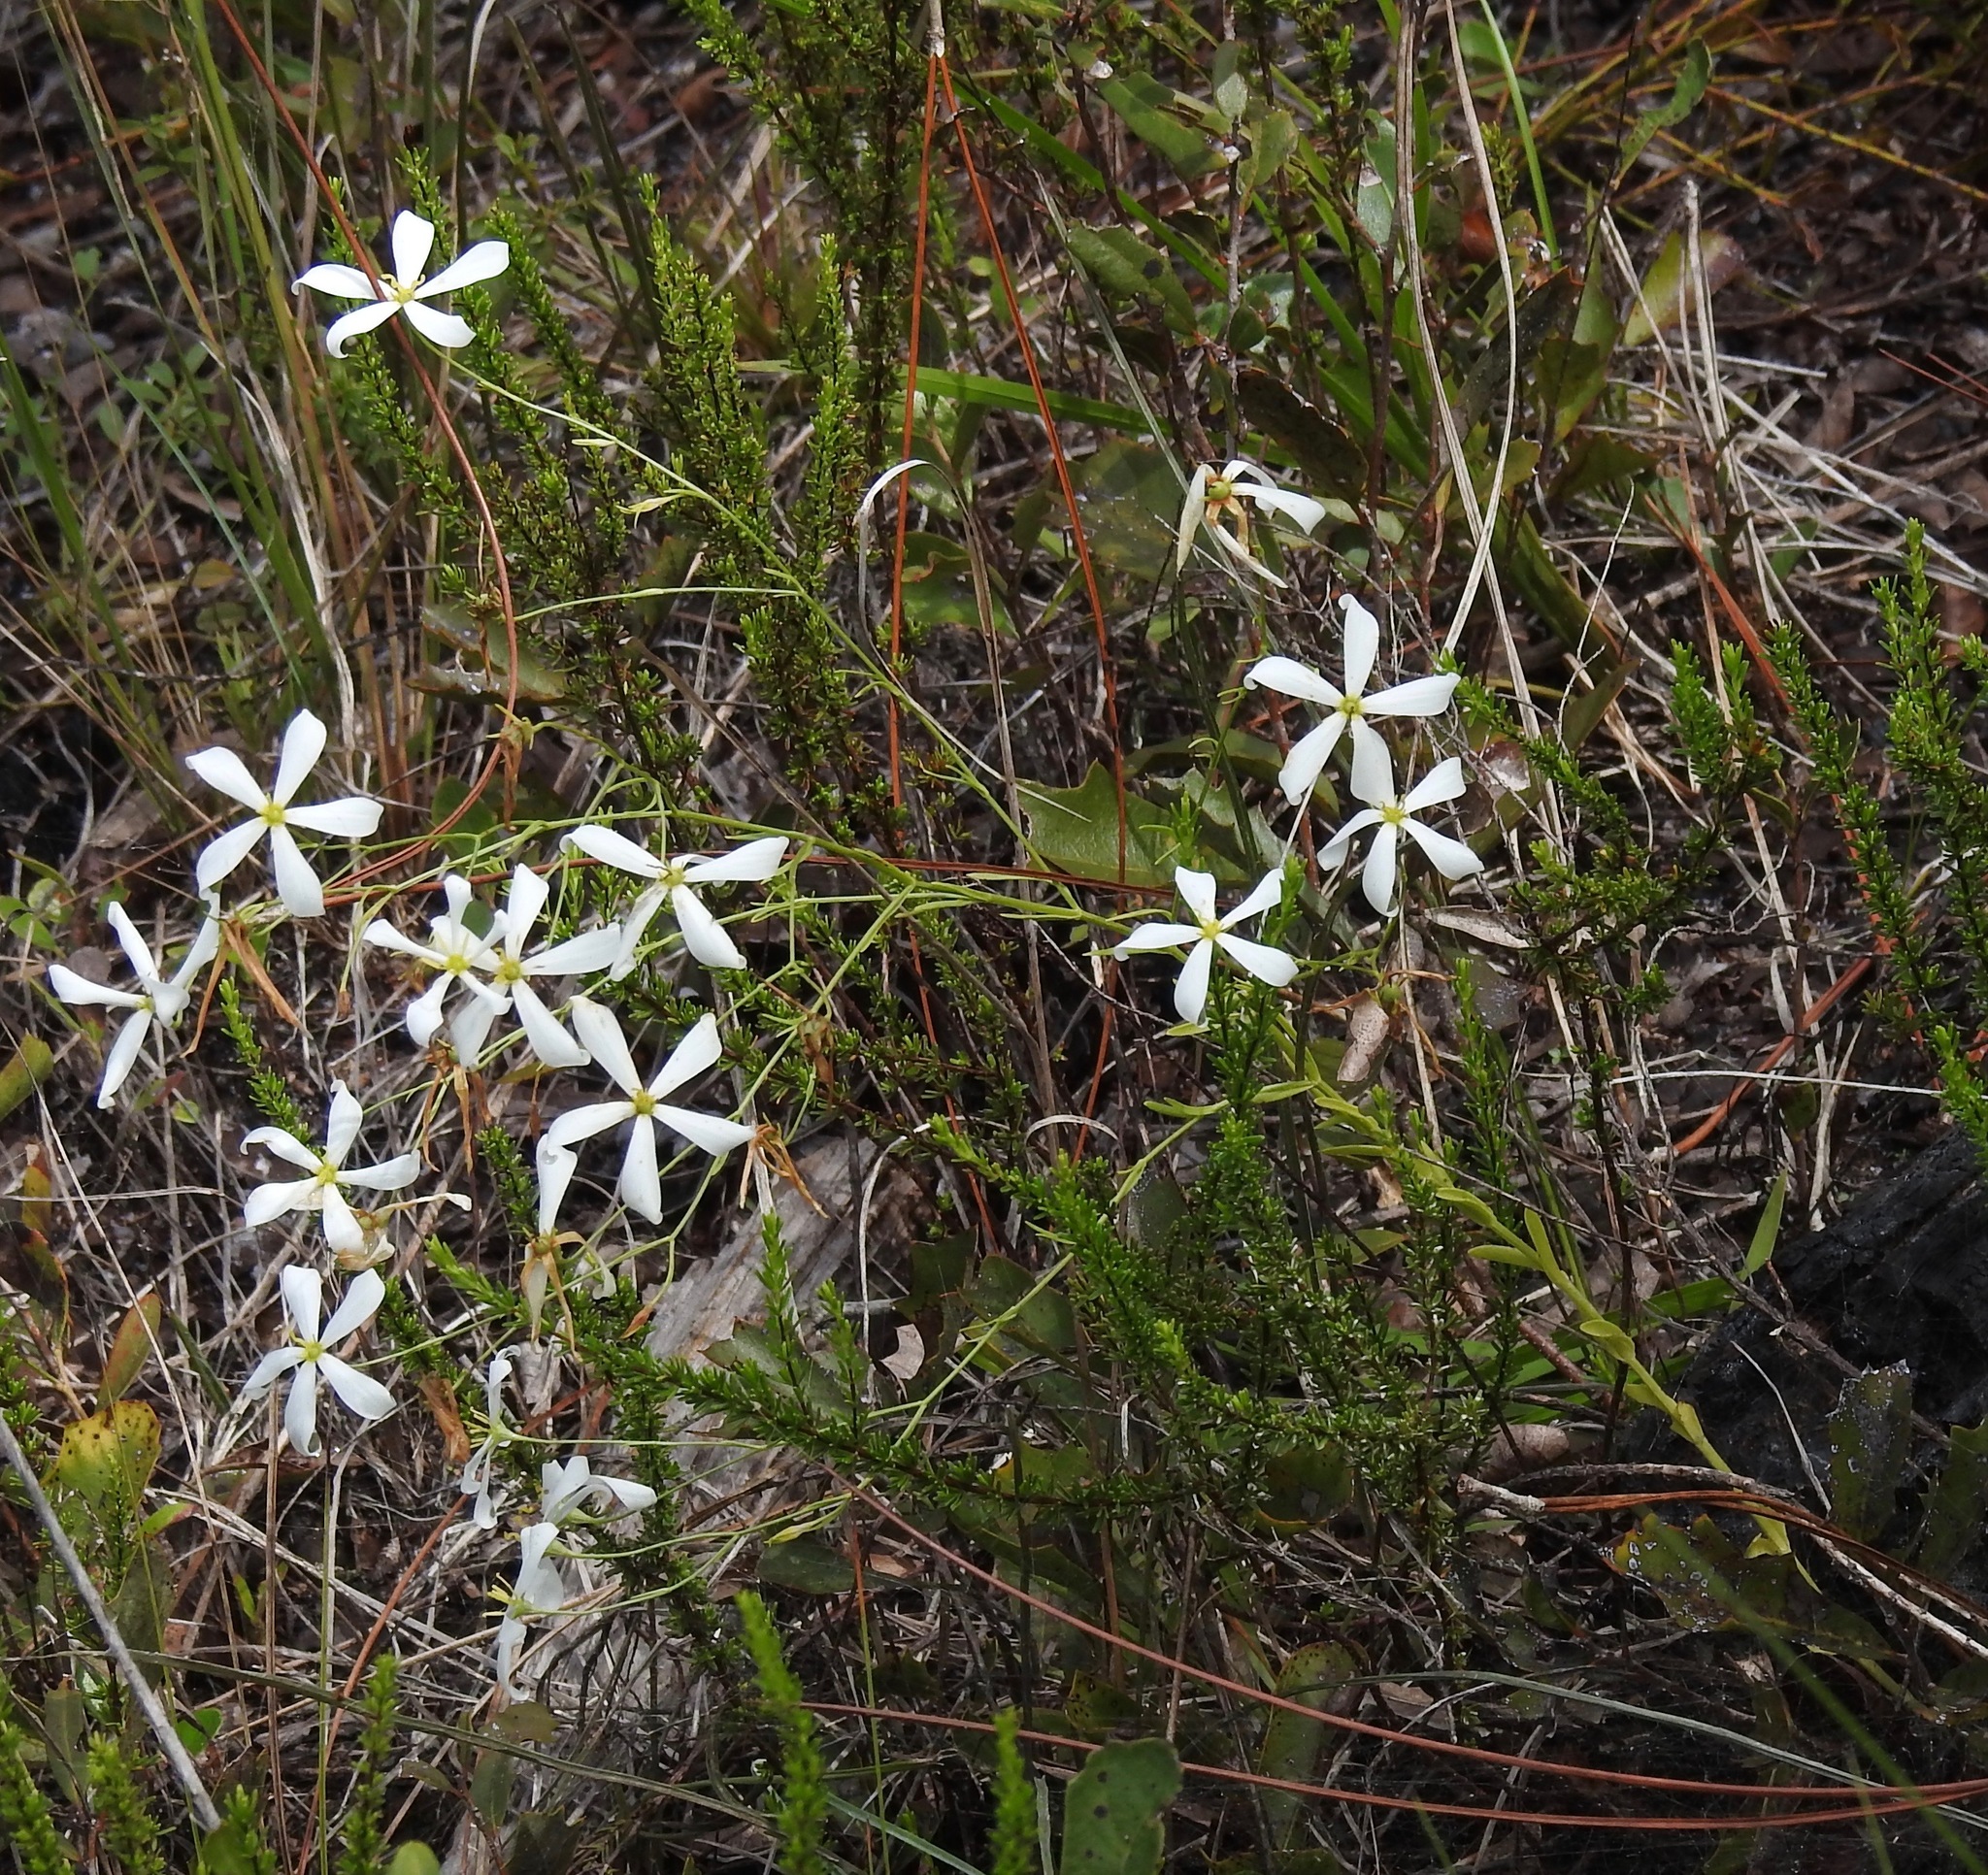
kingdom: Plantae
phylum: Tracheophyta
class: Magnoliopsida
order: Gentianales
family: Gentianaceae
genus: Sabatia
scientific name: Sabatia brevifolia
